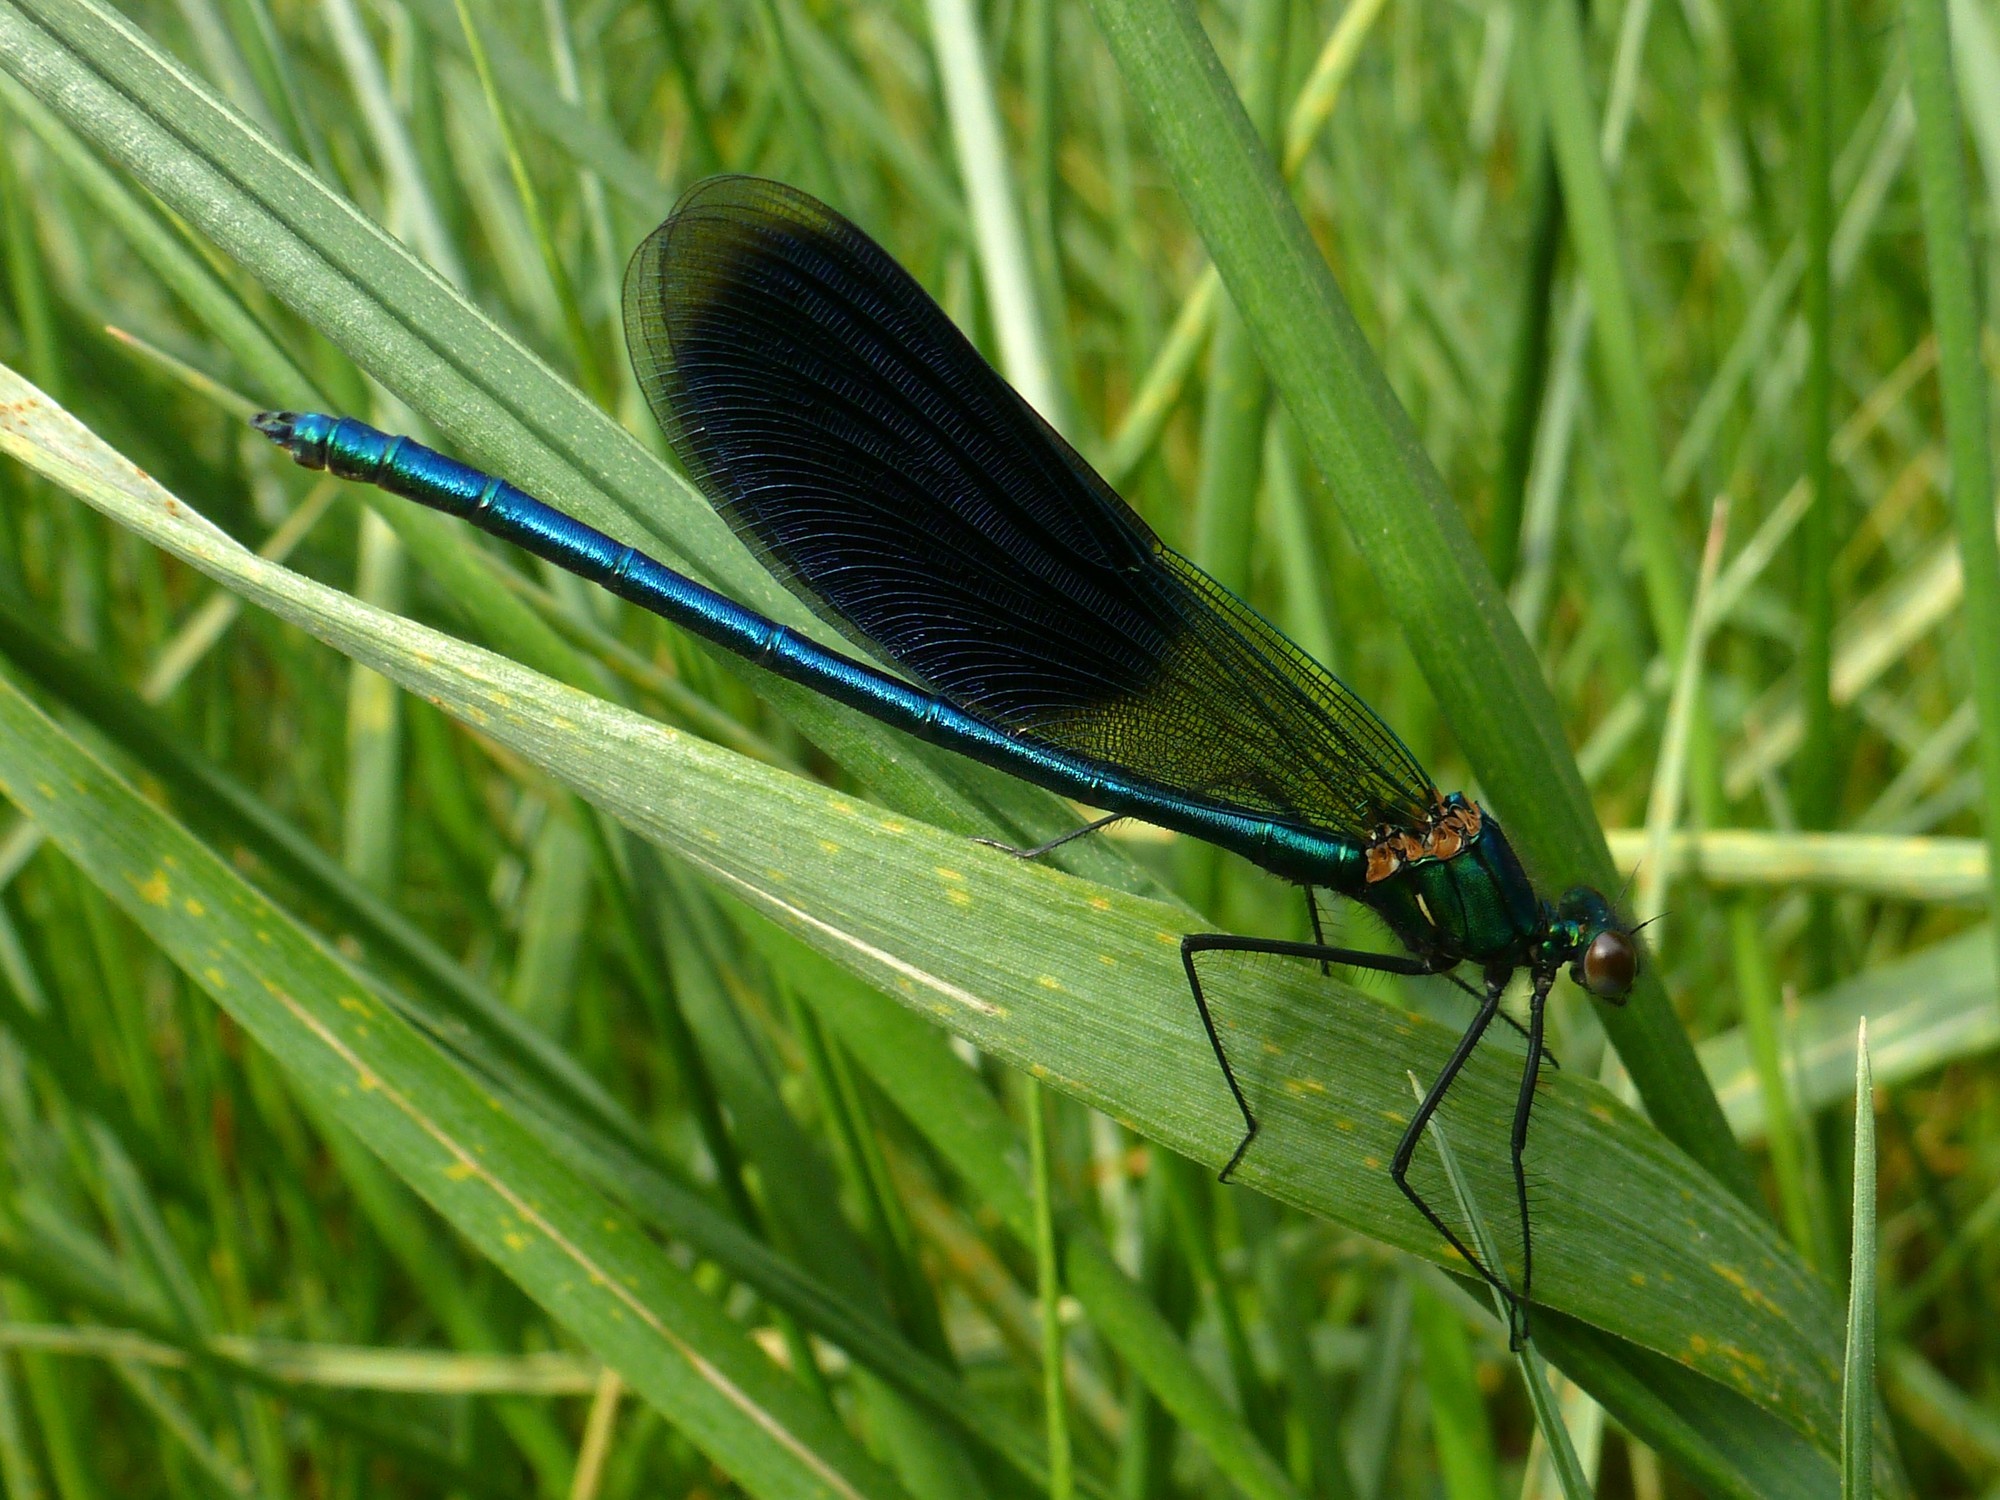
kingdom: Animalia
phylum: Arthropoda
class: Insecta
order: Odonata
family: Calopterygidae
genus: Calopteryx
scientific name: Calopteryx splendens
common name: Banded demoiselle
